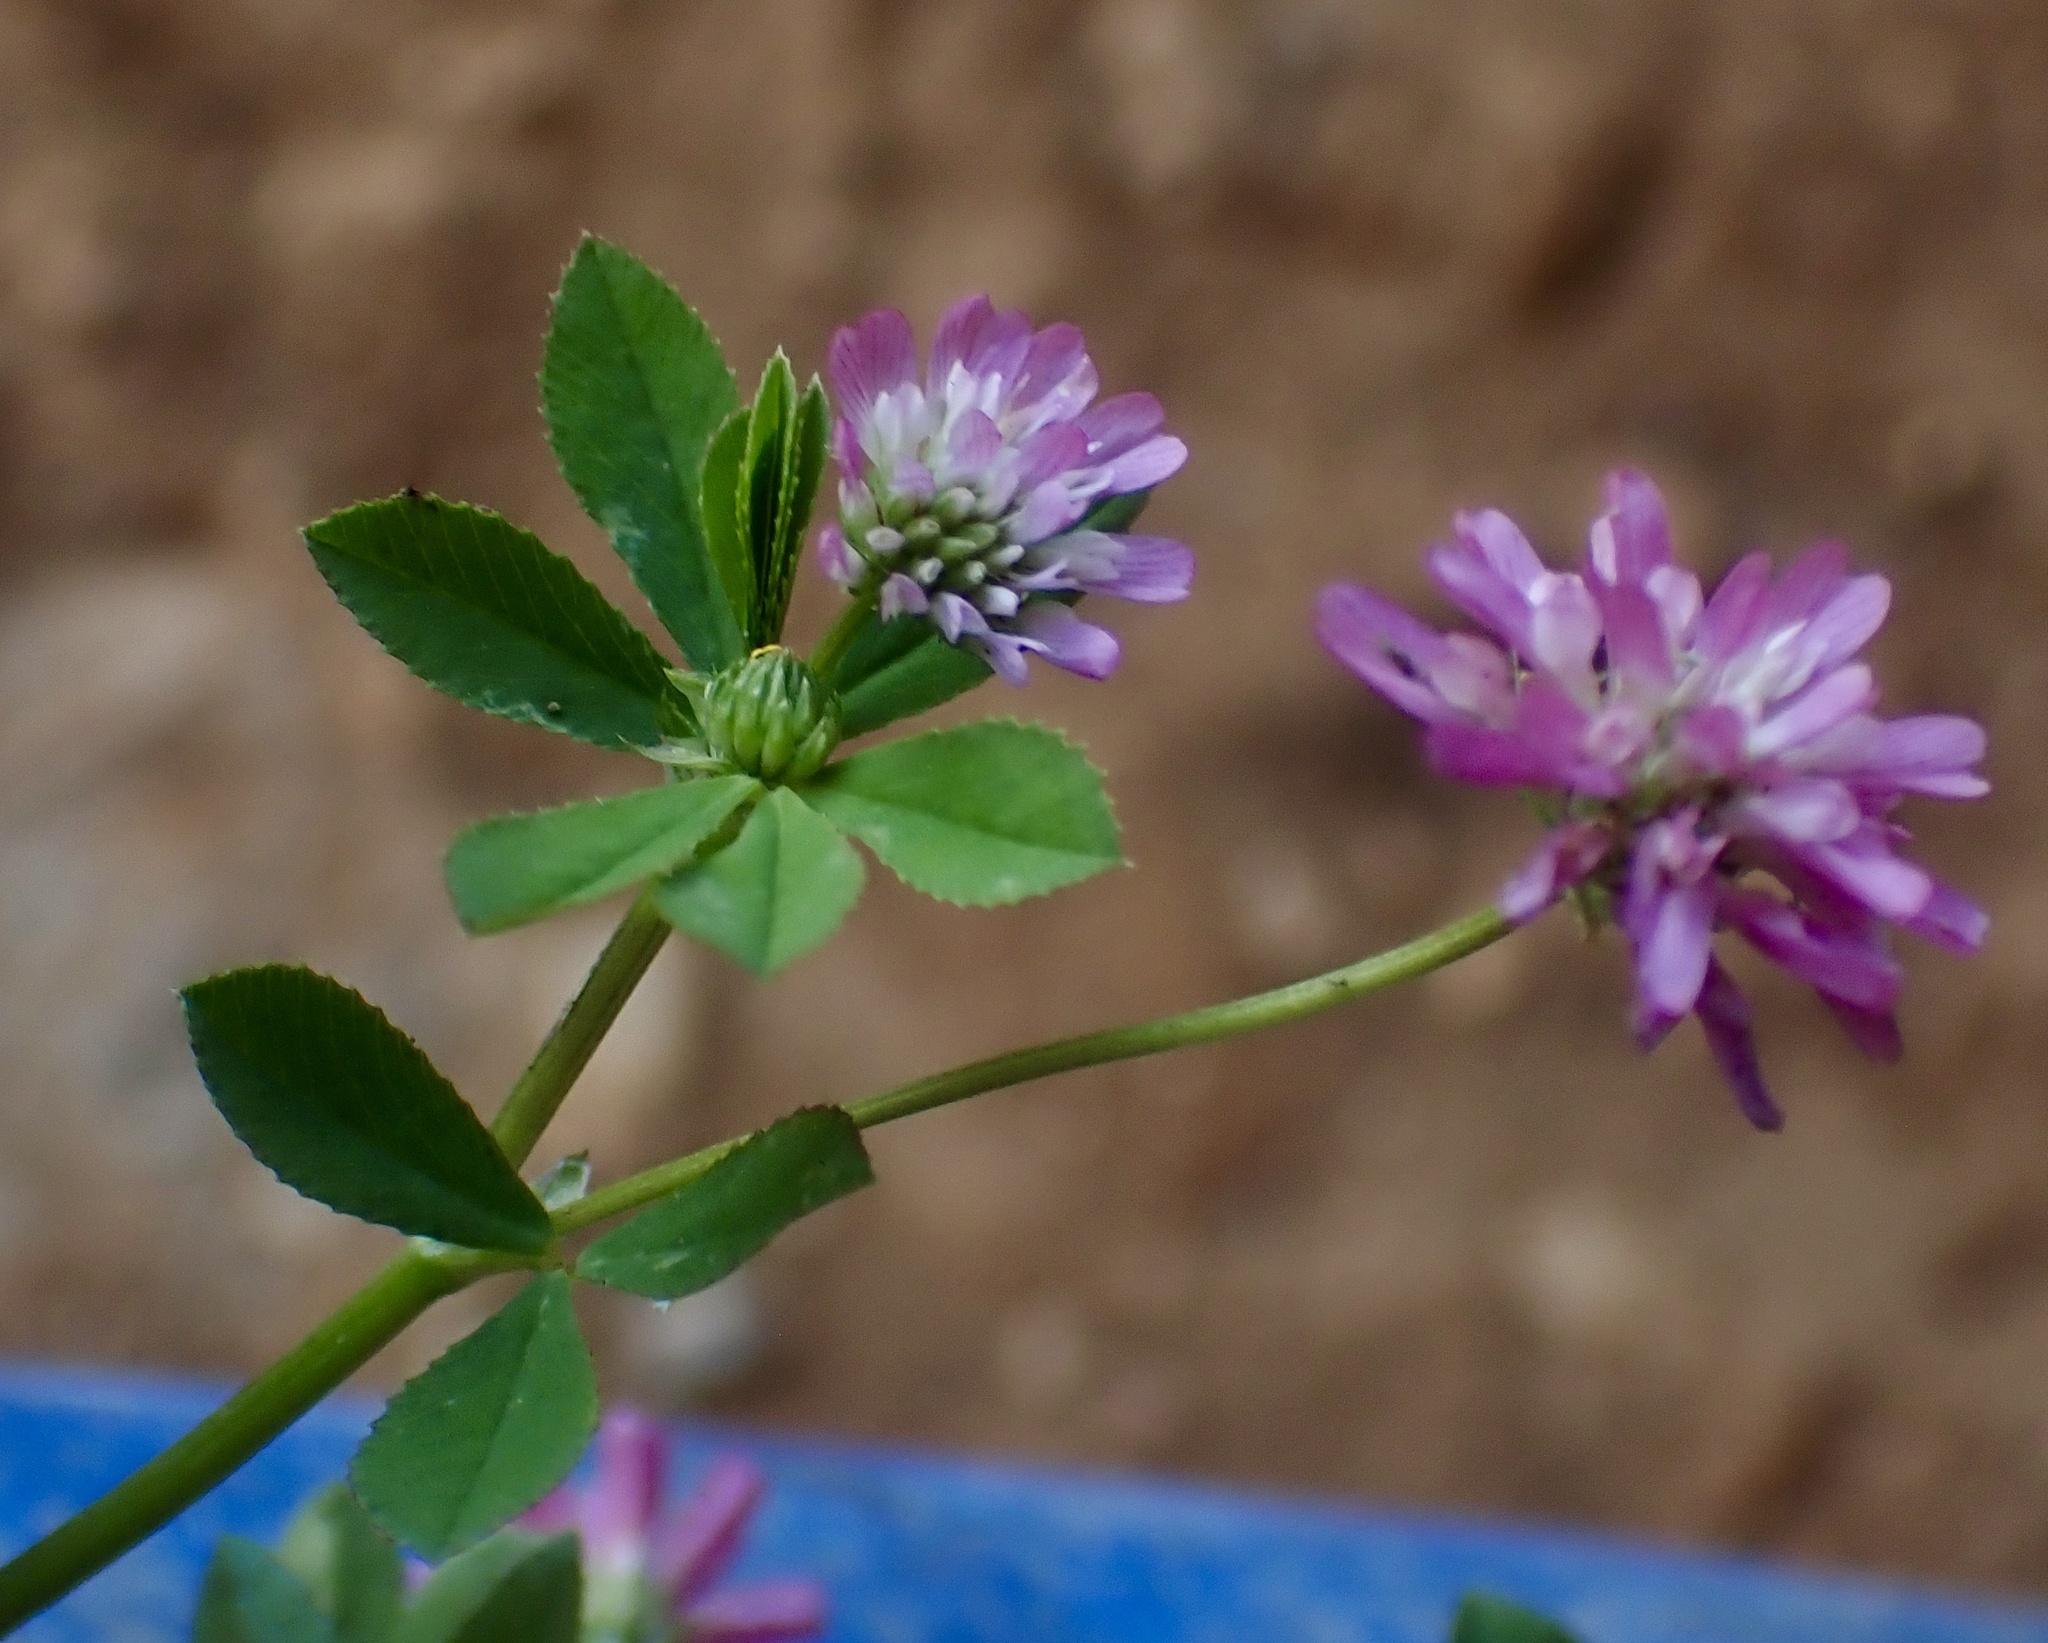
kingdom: Plantae
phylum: Tracheophyta
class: Magnoliopsida
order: Fabales
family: Fabaceae
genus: Trifolium
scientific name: Trifolium resupinatum
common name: Reversed clover
